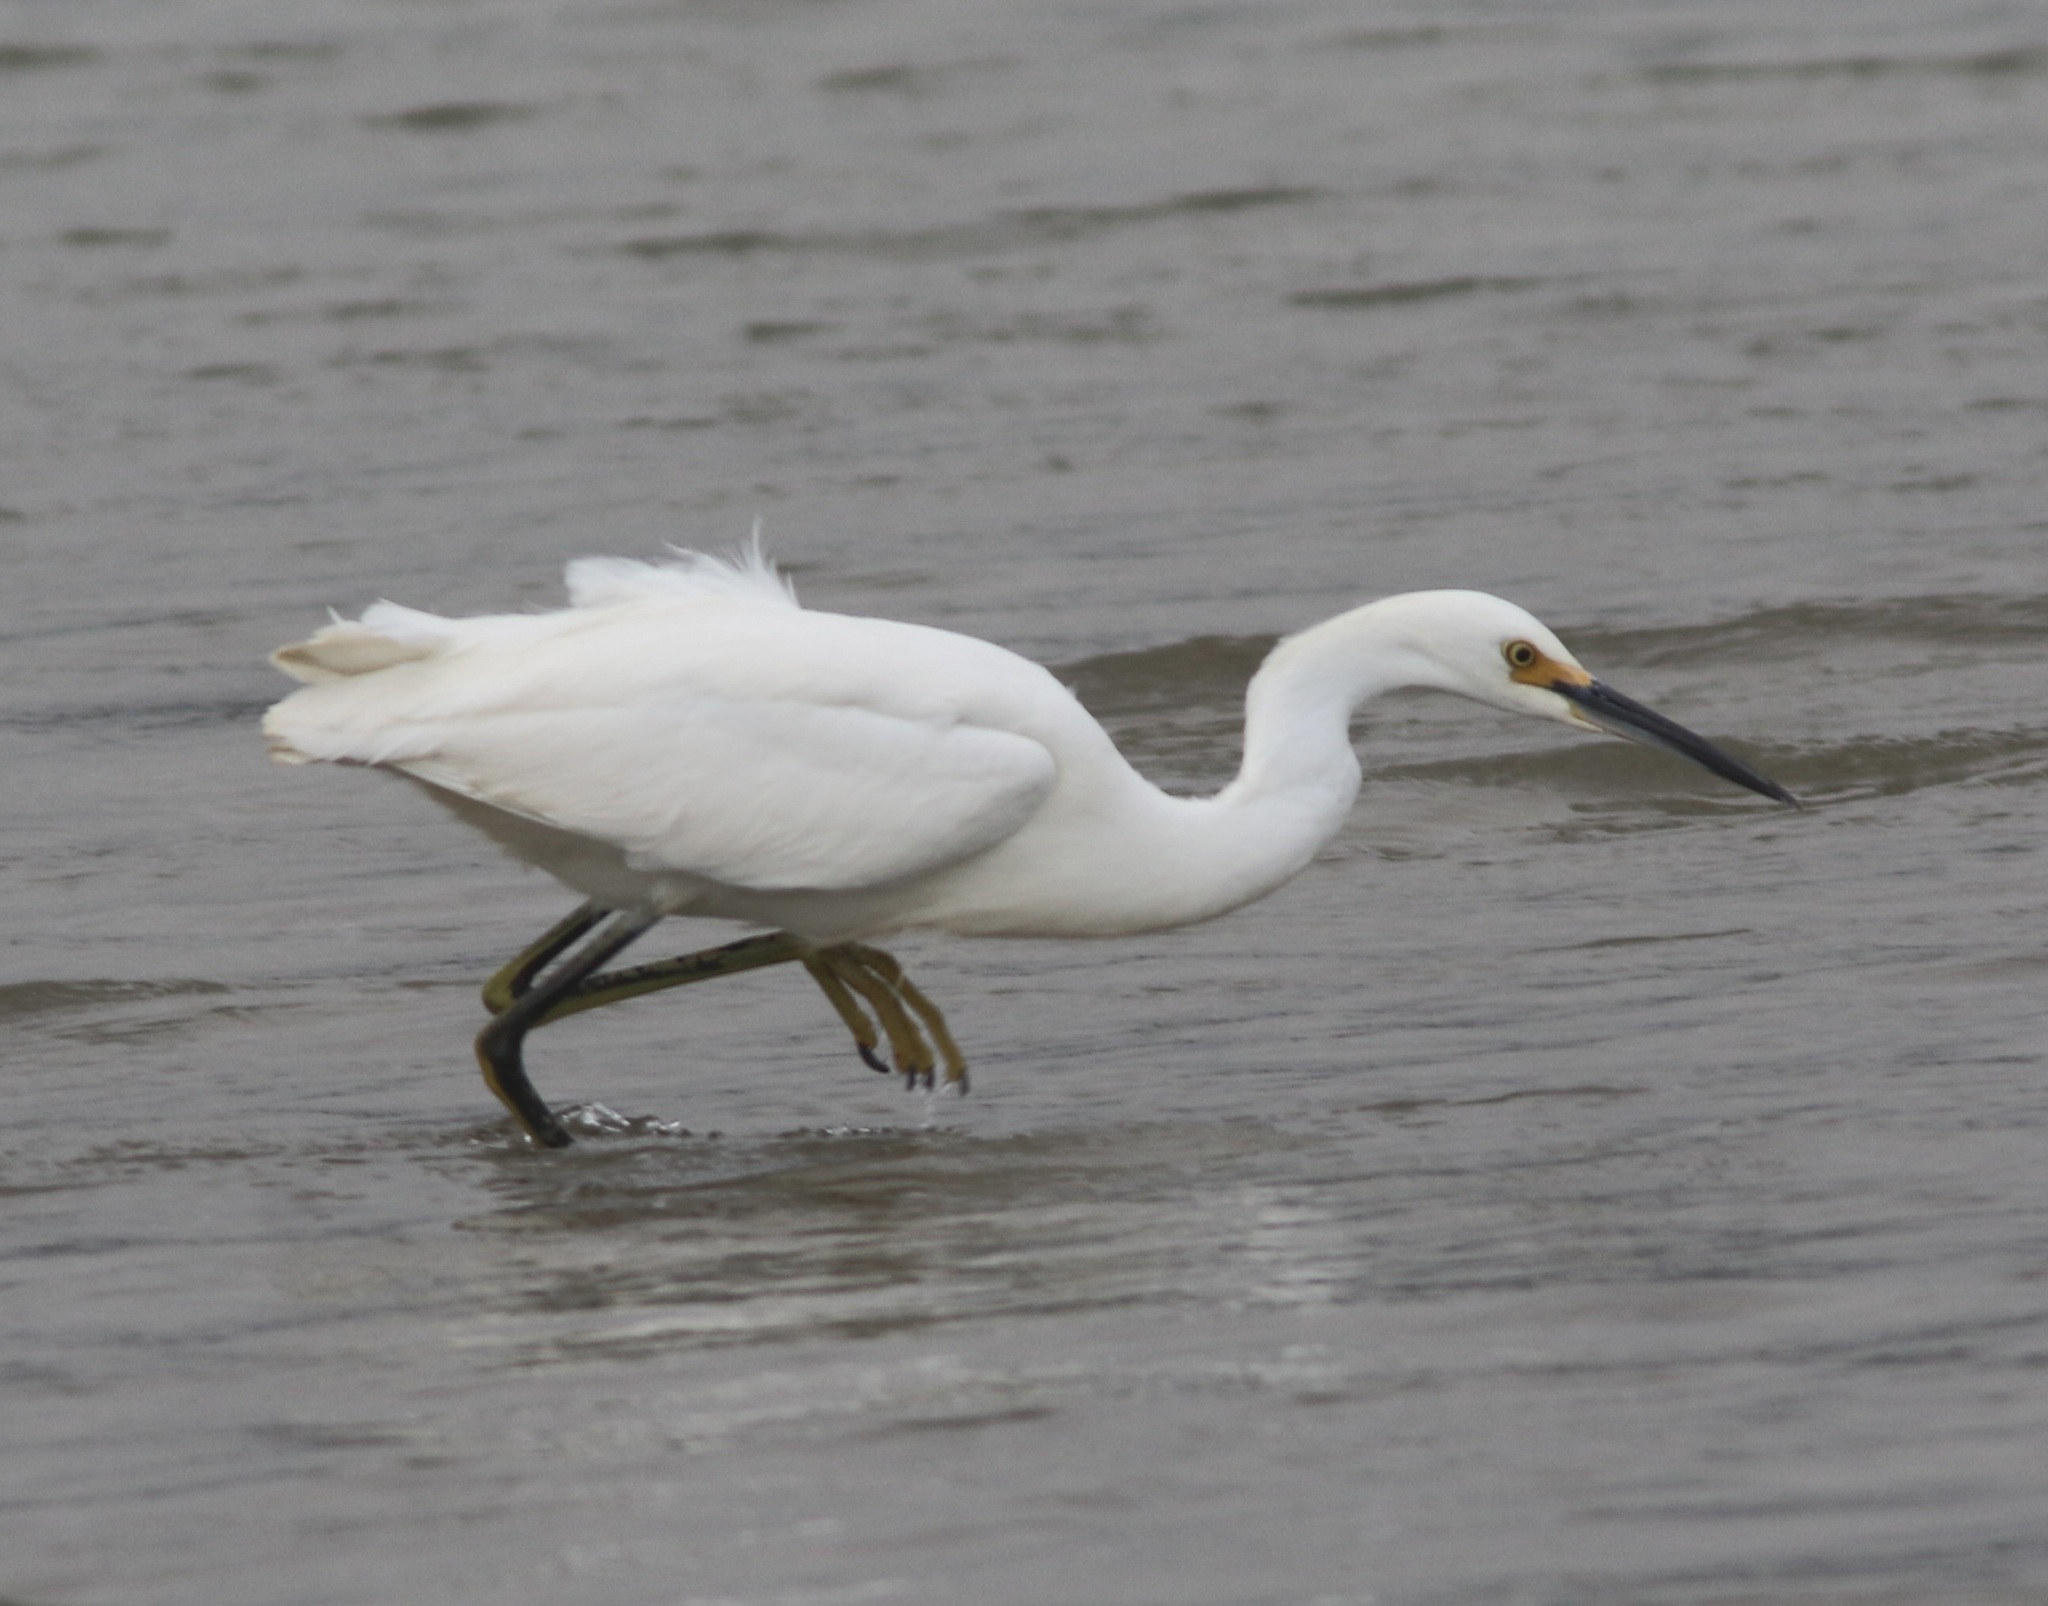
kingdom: Animalia
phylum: Chordata
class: Aves
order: Pelecaniformes
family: Ardeidae
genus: Egretta
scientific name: Egretta thula
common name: Snowy egret
